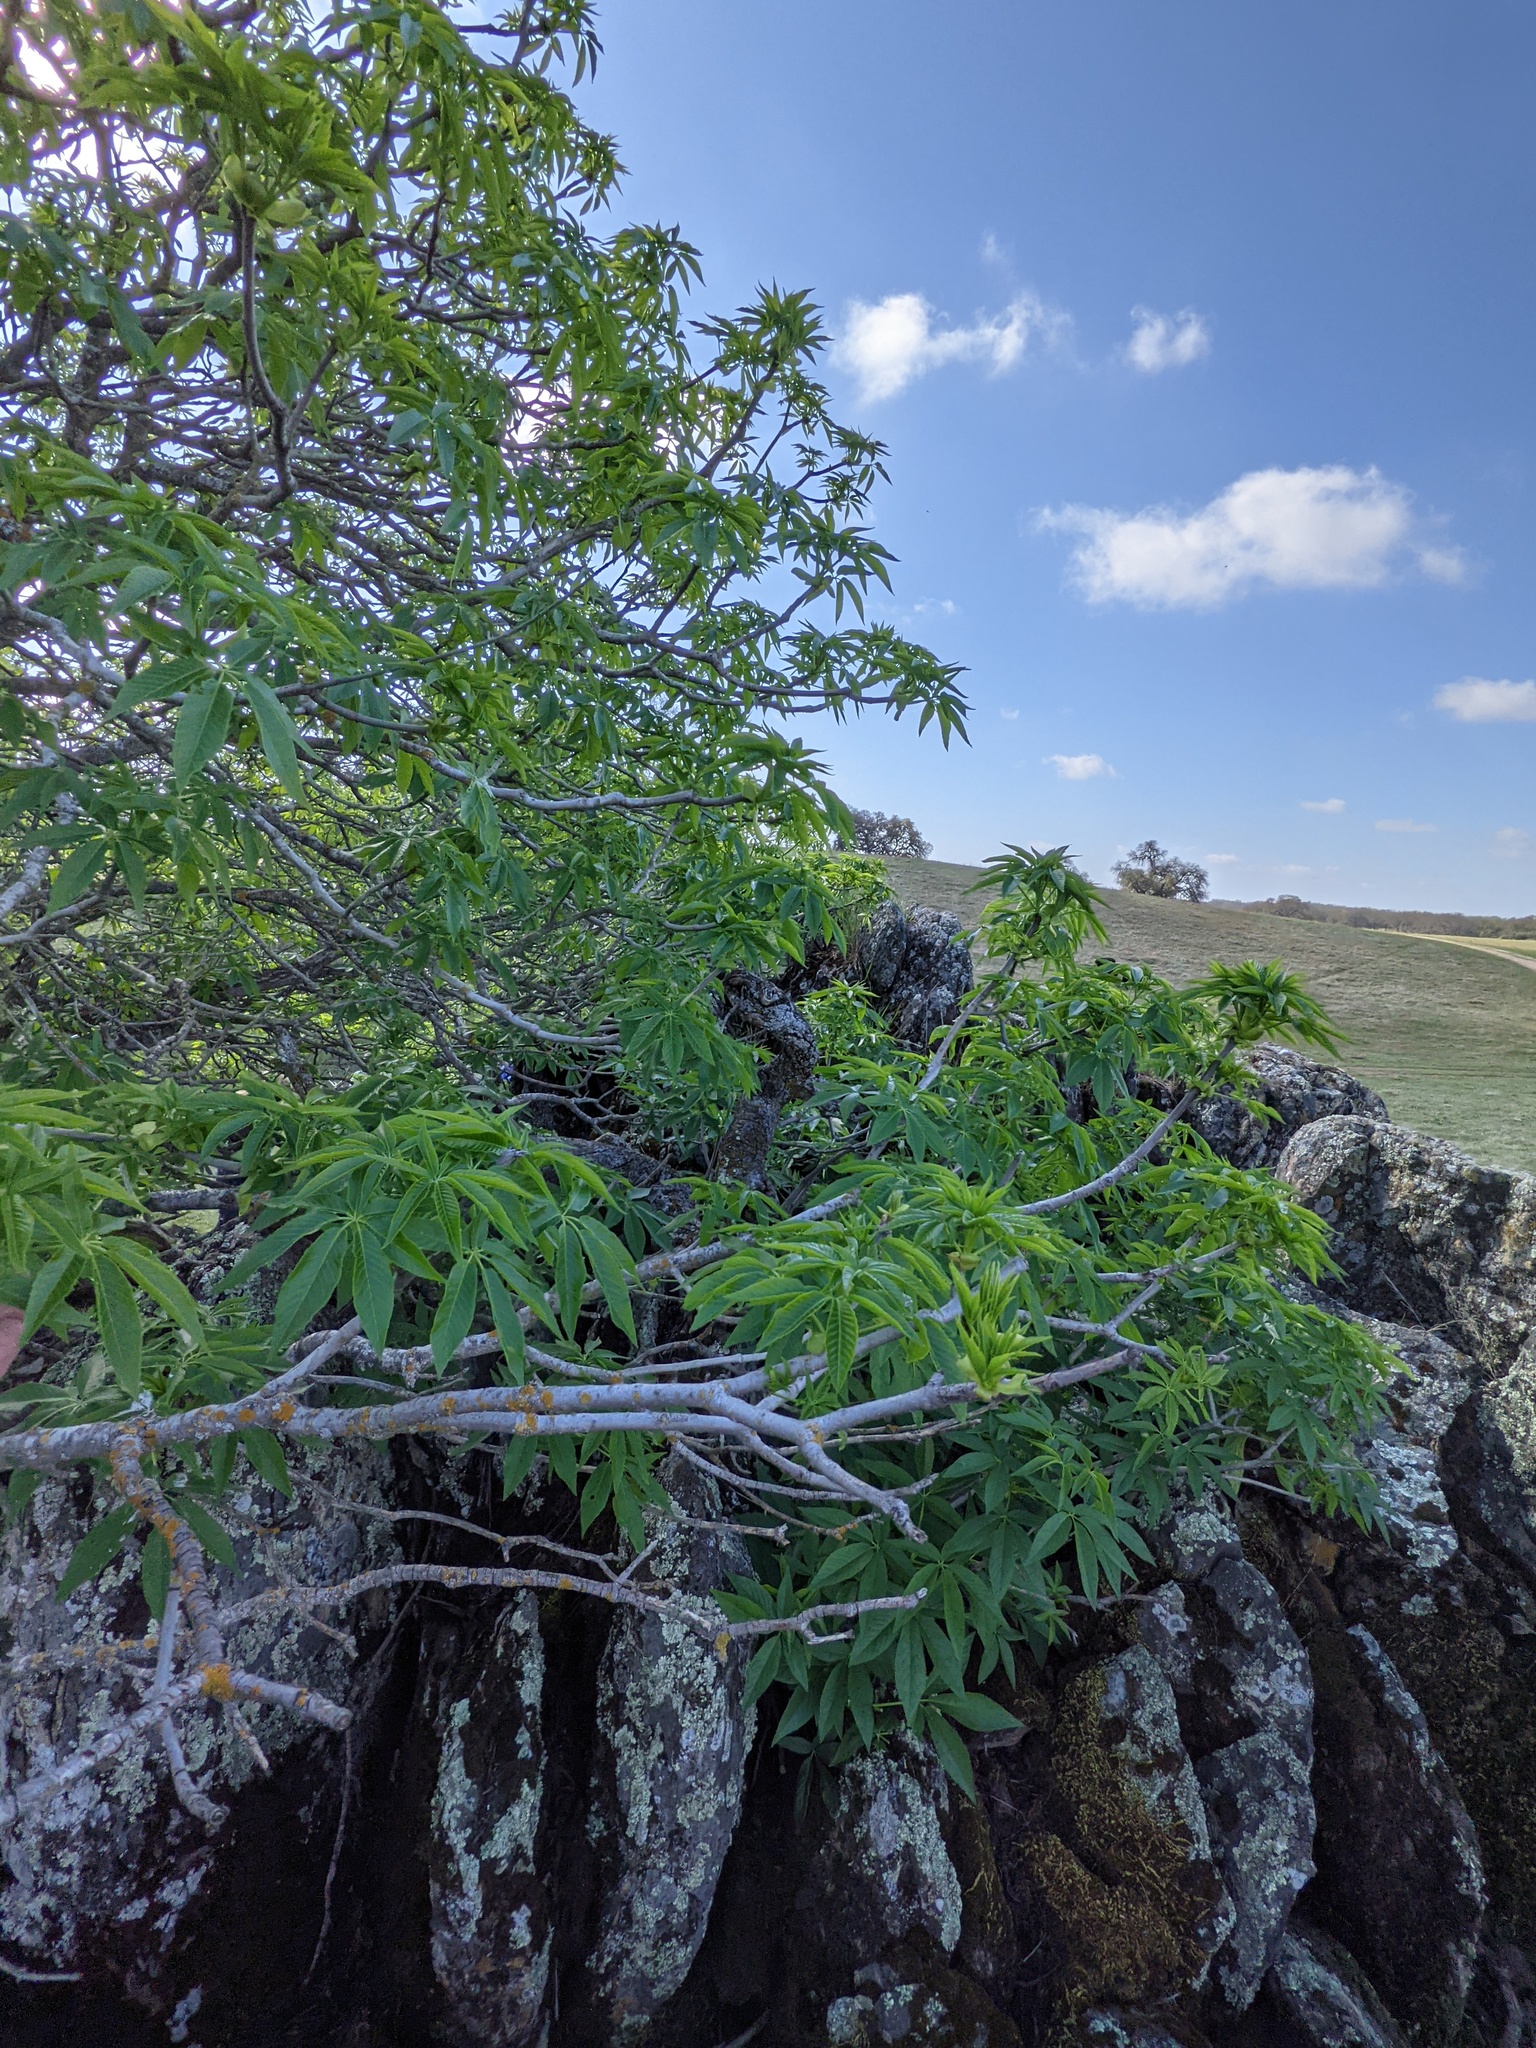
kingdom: Plantae
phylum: Tracheophyta
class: Magnoliopsida
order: Sapindales
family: Sapindaceae
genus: Aesculus
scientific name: Aesculus californica
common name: California buckeye
